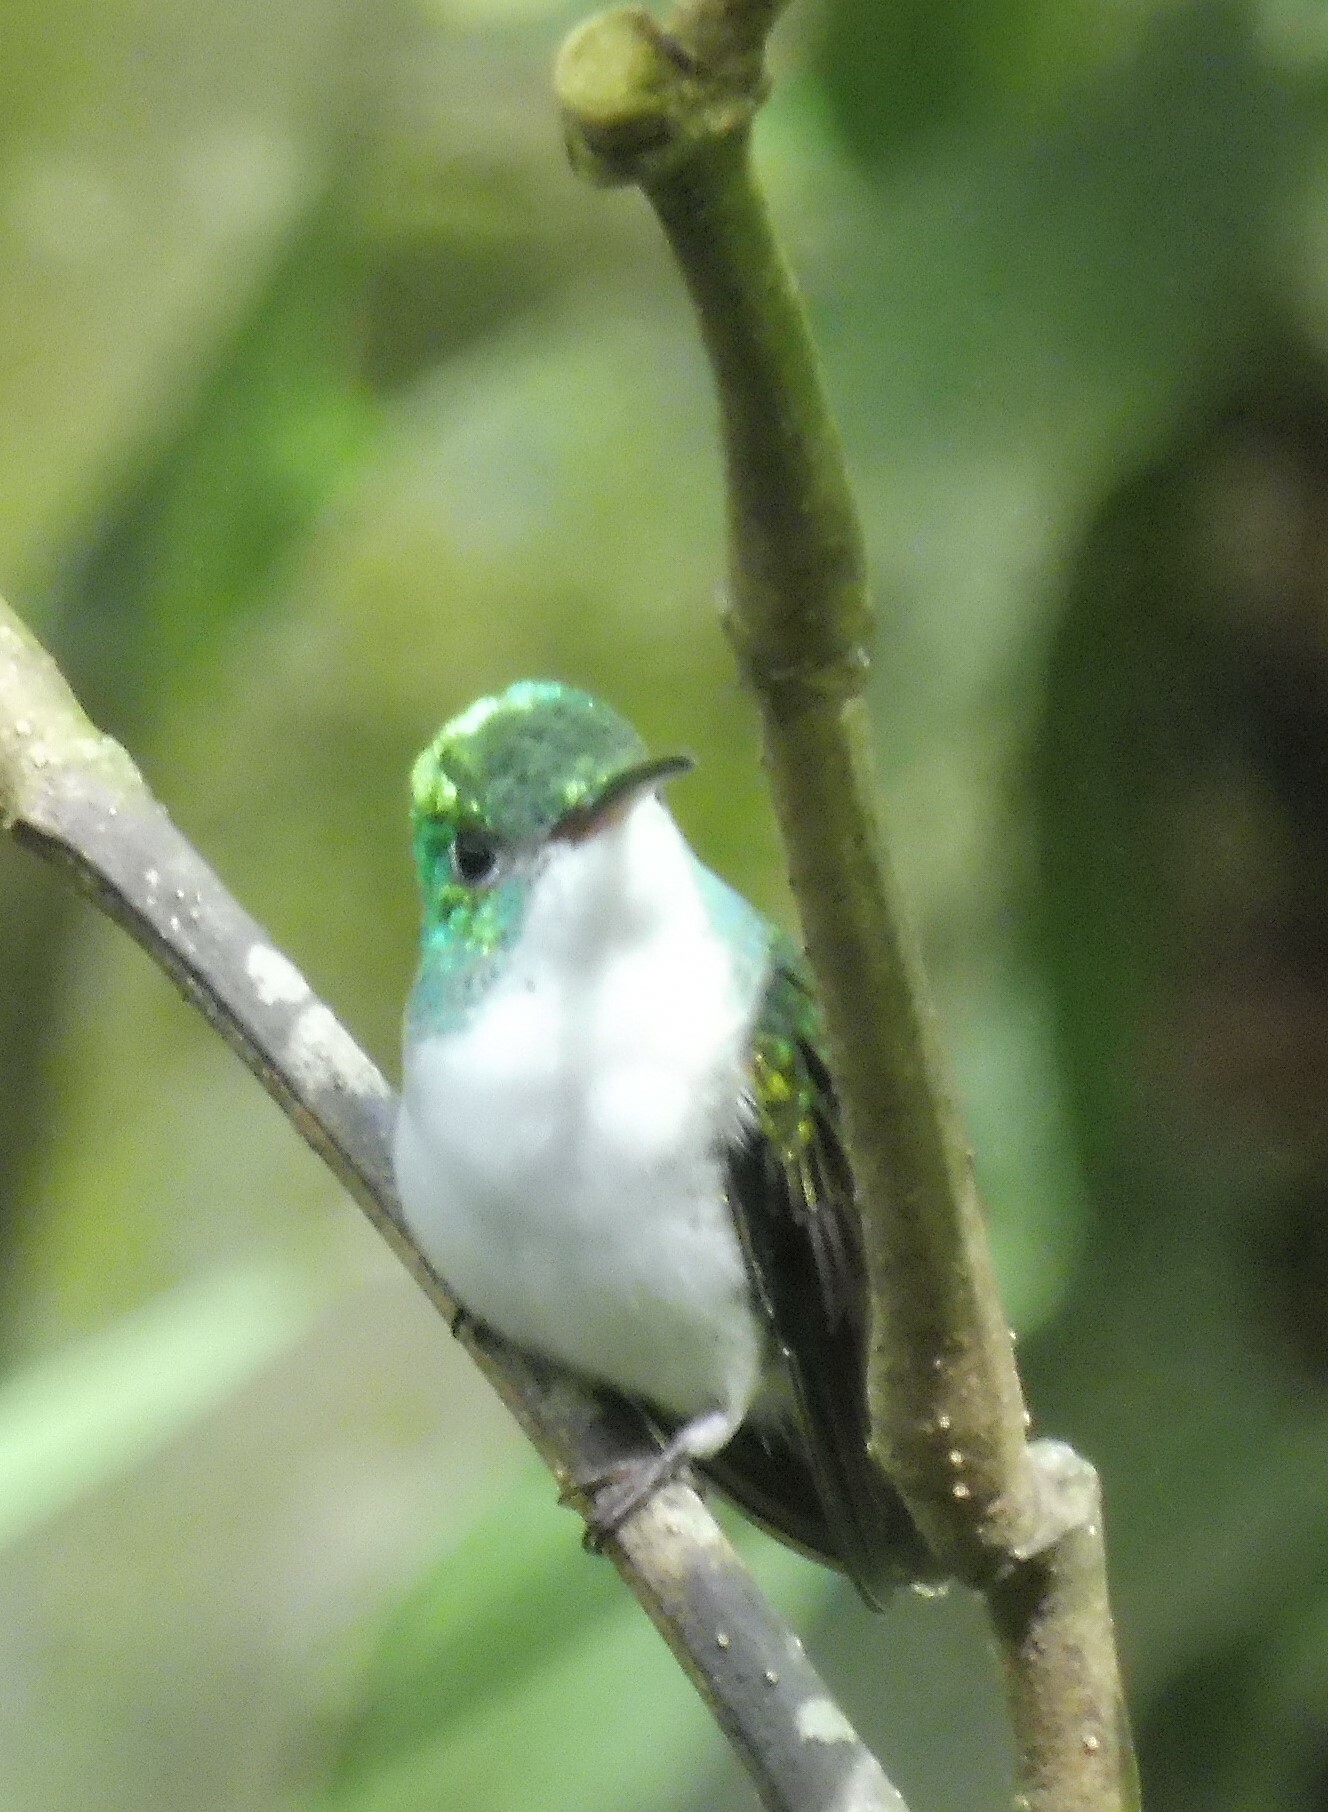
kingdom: Animalia
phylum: Chordata
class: Aves
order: Apodiformes
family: Trochilidae
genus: Uranomitra
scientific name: Uranomitra franciae
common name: Andean emerald
